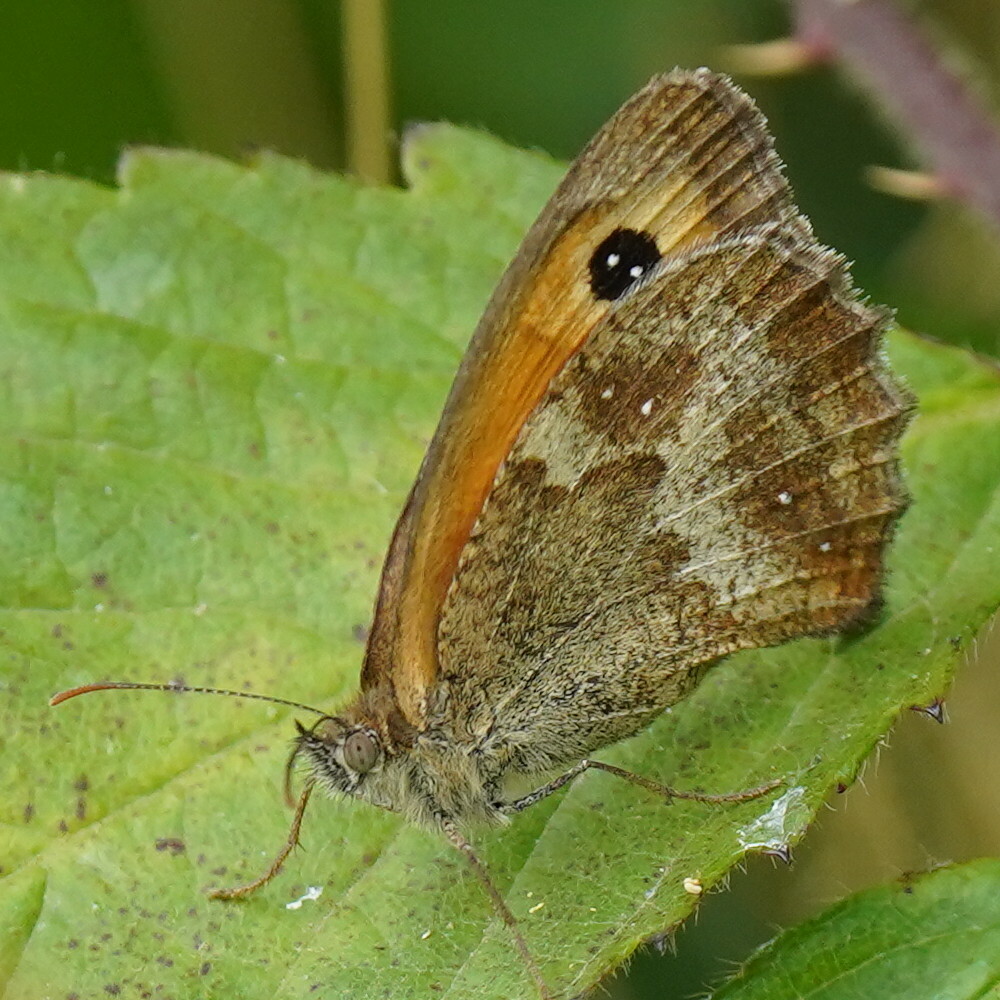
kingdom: Animalia
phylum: Arthropoda
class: Insecta
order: Lepidoptera
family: Nymphalidae
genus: Pyronia
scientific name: Pyronia tithonus
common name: Gatekeeper
